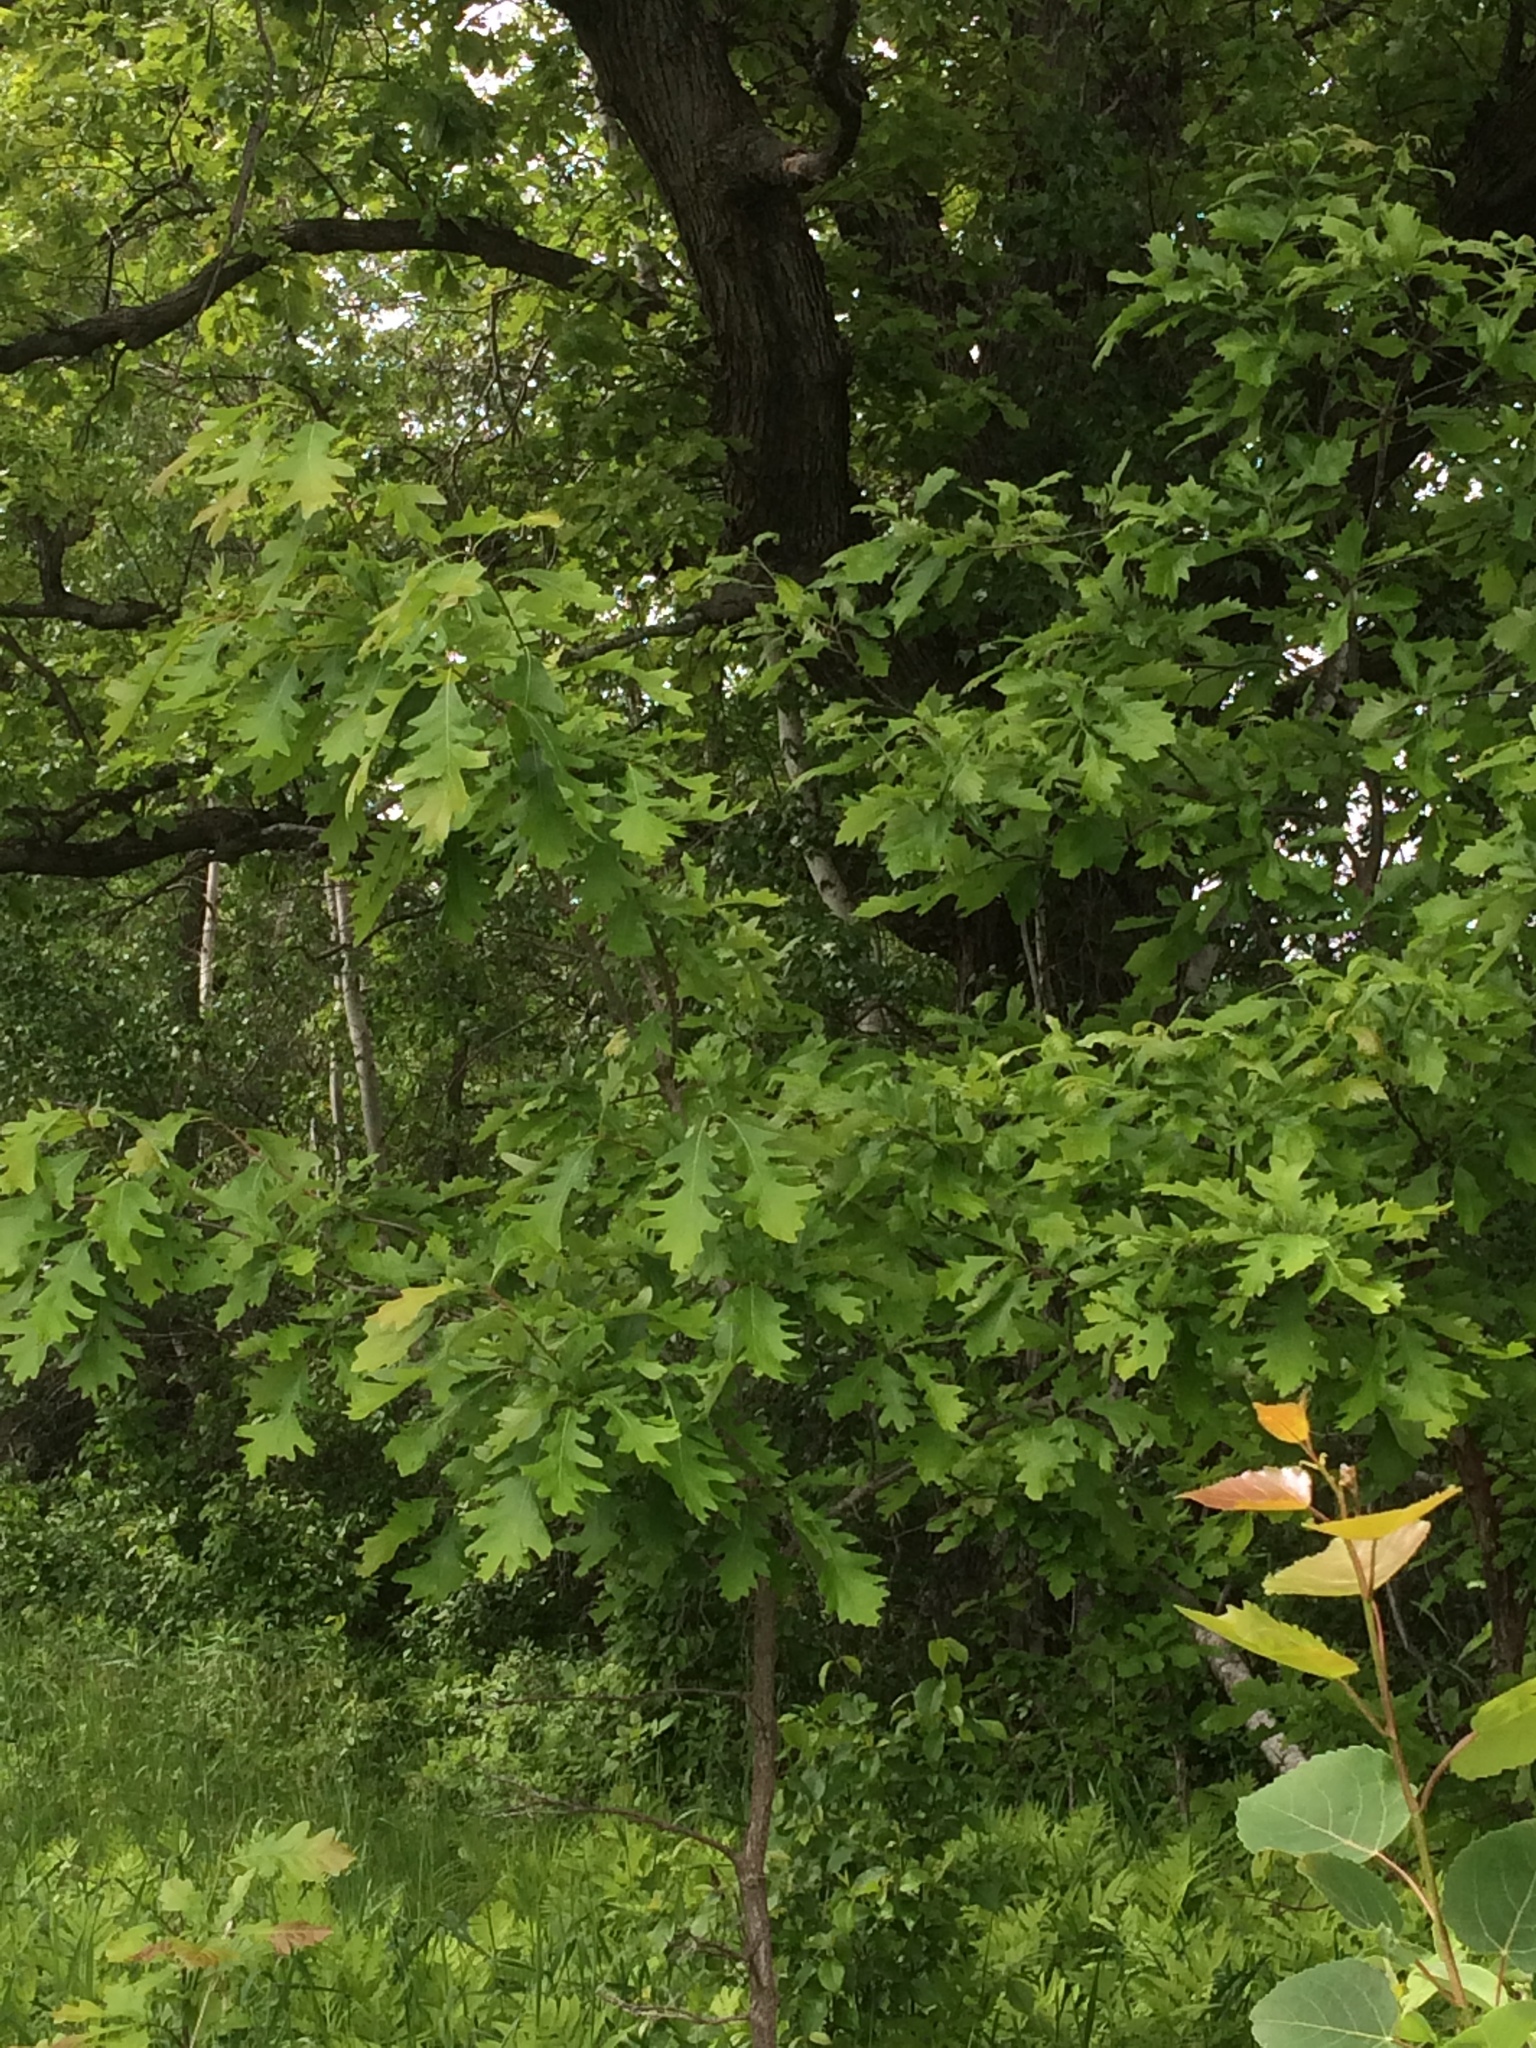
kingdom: Plantae
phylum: Tracheophyta
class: Magnoliopsida
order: Fagales
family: Fagaceae
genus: Quercus
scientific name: Quercus macrocarpa
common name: Bur oak
